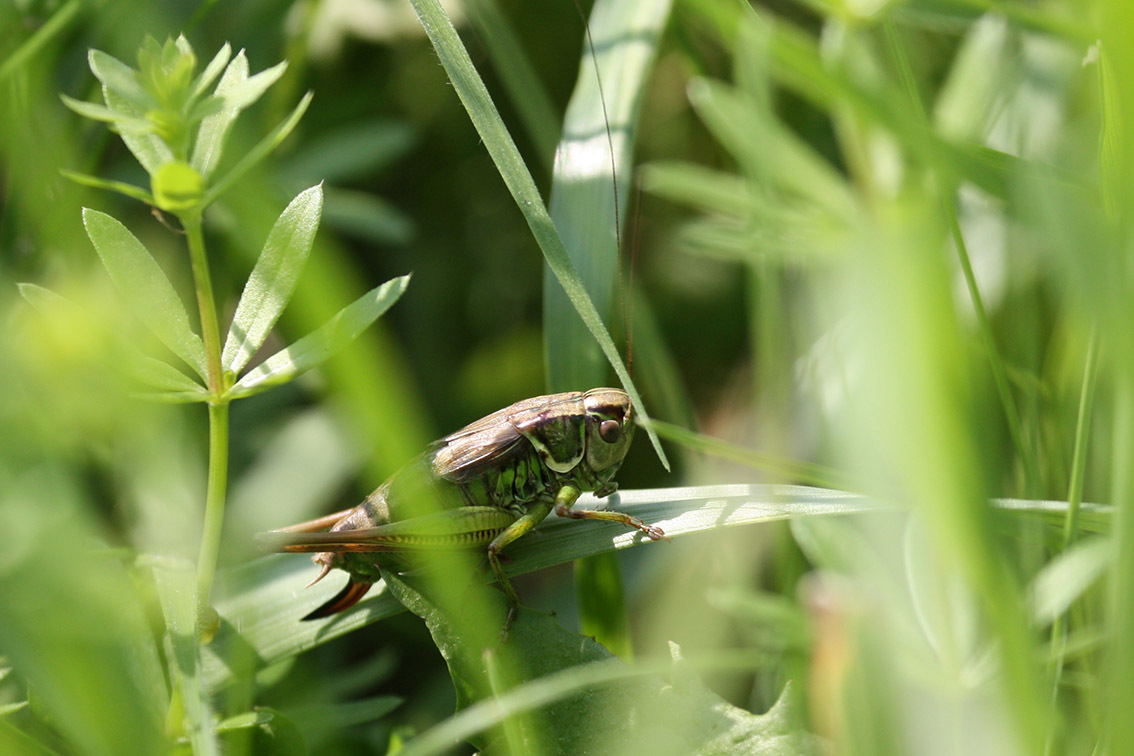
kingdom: Animalia
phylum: Arthropoda
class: Insecta
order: Orthoptera
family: Tettigoniidae
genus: Roeseliana
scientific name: Roeseliana roeselii
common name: Roesel's bush cricket
